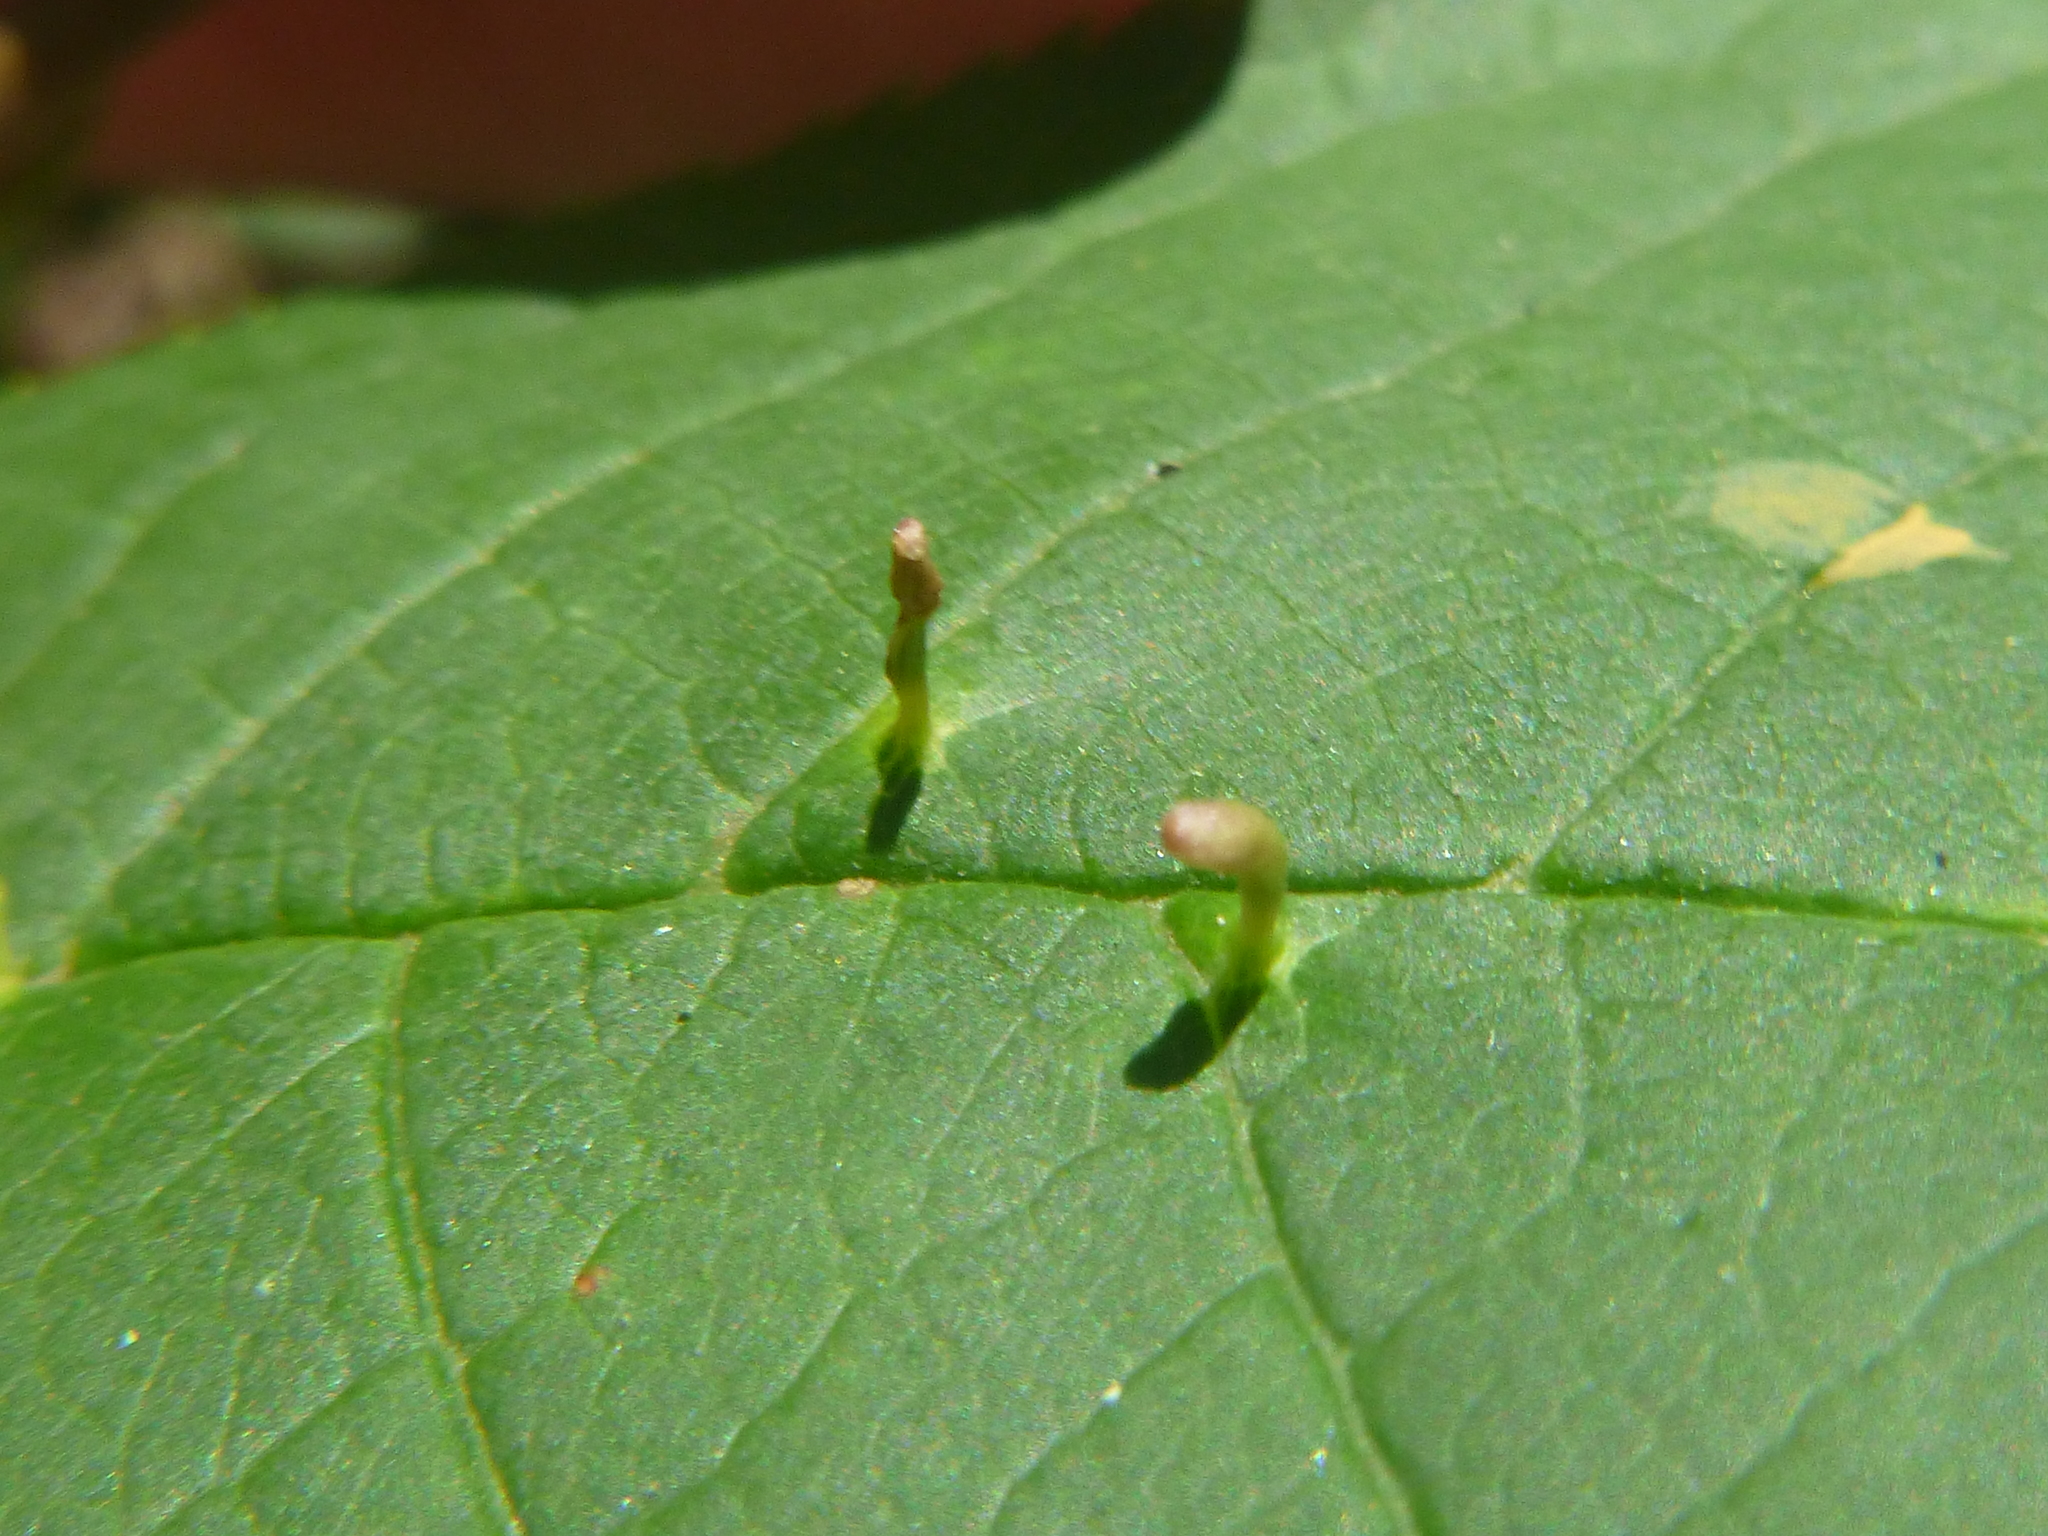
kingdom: Animalia
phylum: Arthropoda
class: Arachnida
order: Trombidiformes
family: Eriophyidae
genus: Eriophyes
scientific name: Eriophyes tiliae
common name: Red nail gall mite
